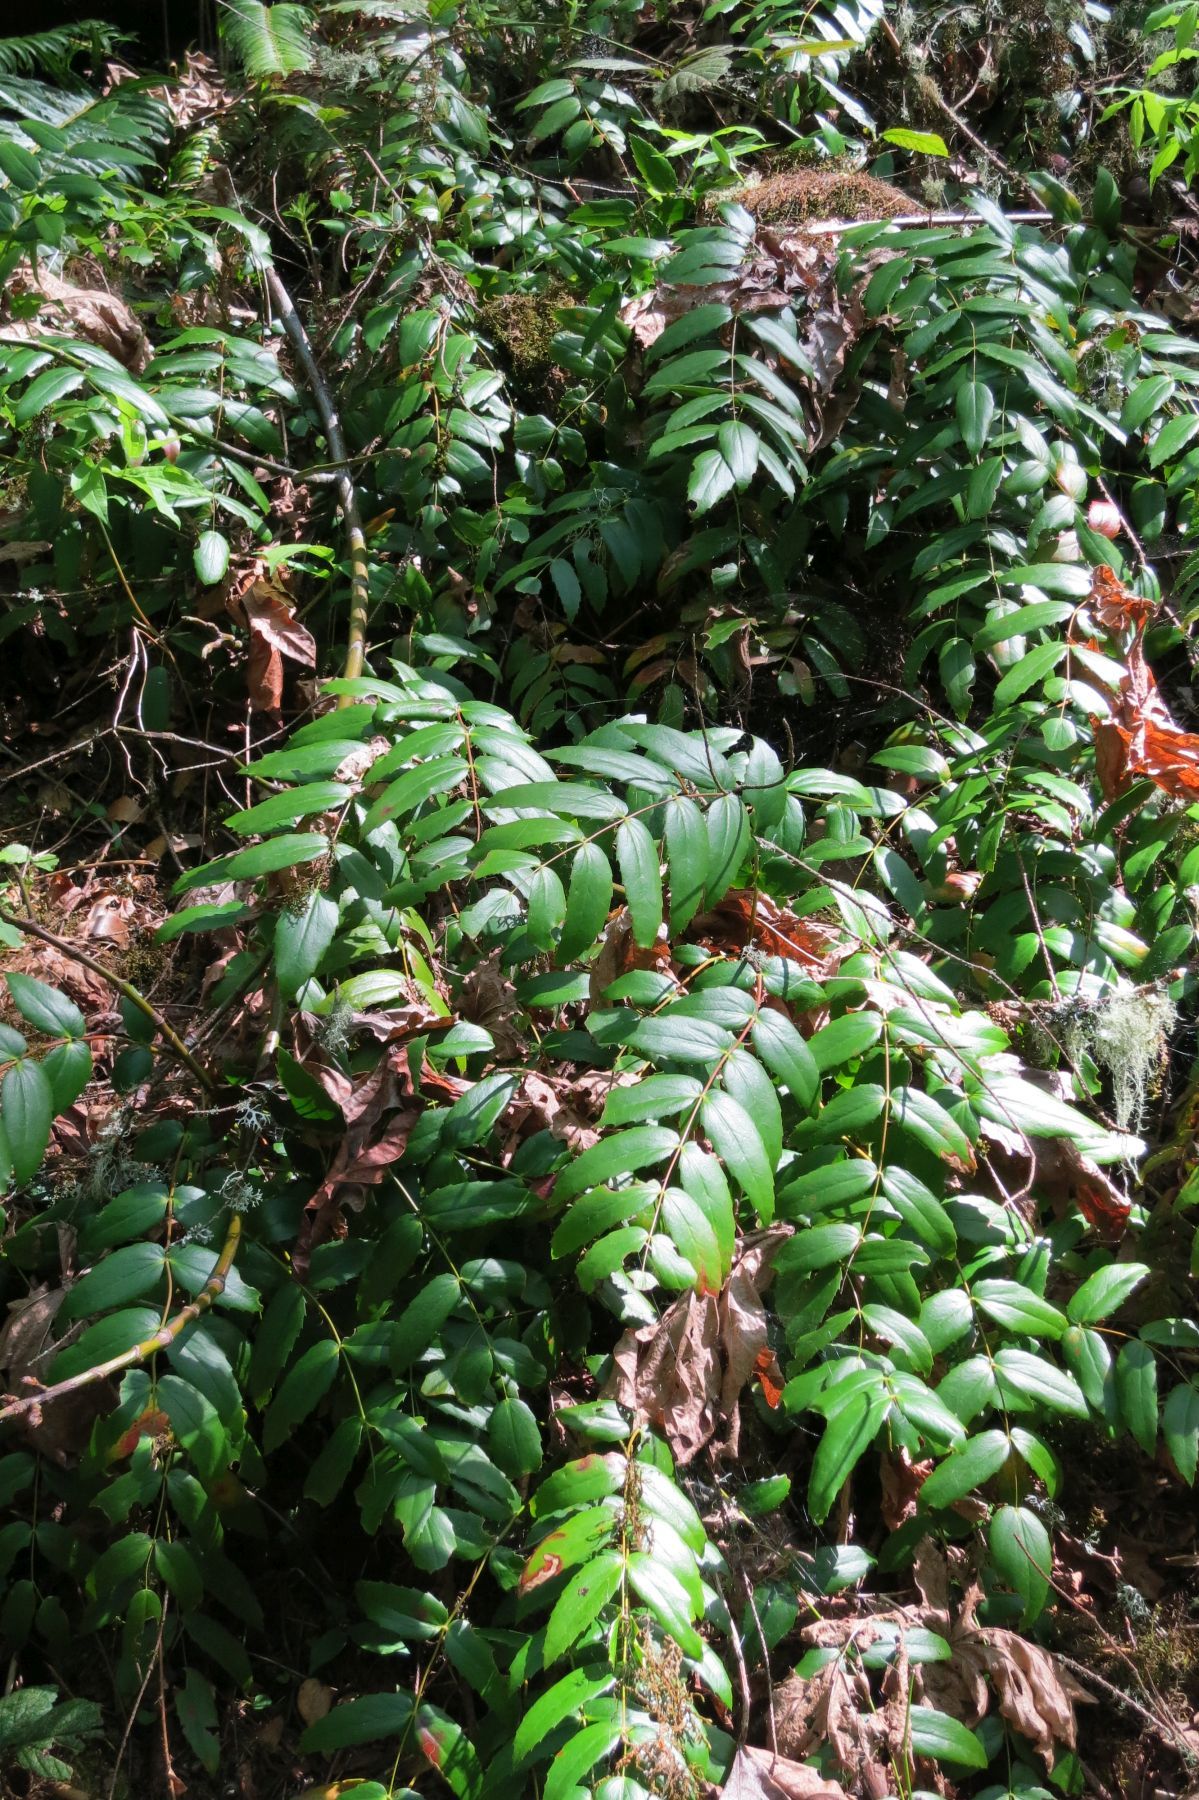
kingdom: Plantae
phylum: Tracheophyta
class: Magnoliopsida
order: Ranunculales
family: Berberidaceae
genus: Mahonia
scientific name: Mahonia nervosa
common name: Cascade oregon-grape
